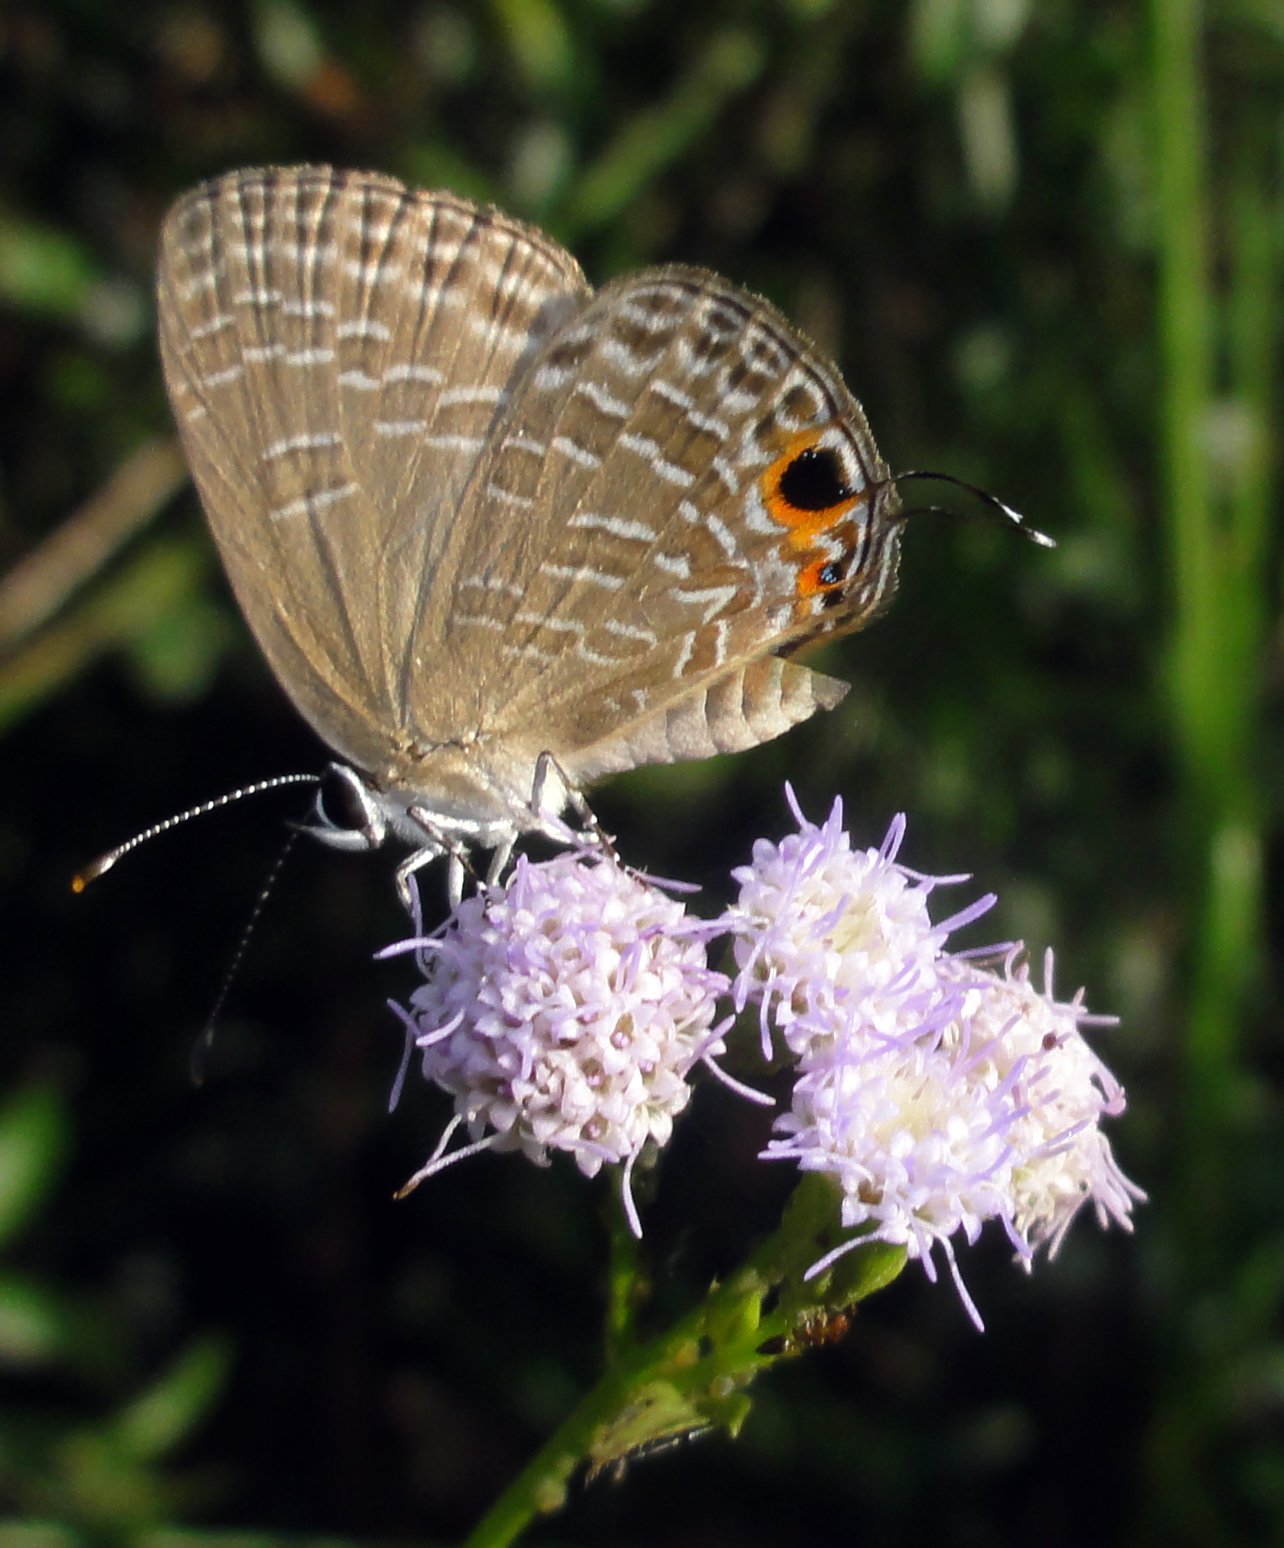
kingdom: Animalia
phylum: Arthropoda
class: Insecta
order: Lepidoptera
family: Lycaenidae
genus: Jamides
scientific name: Jamides bochus
